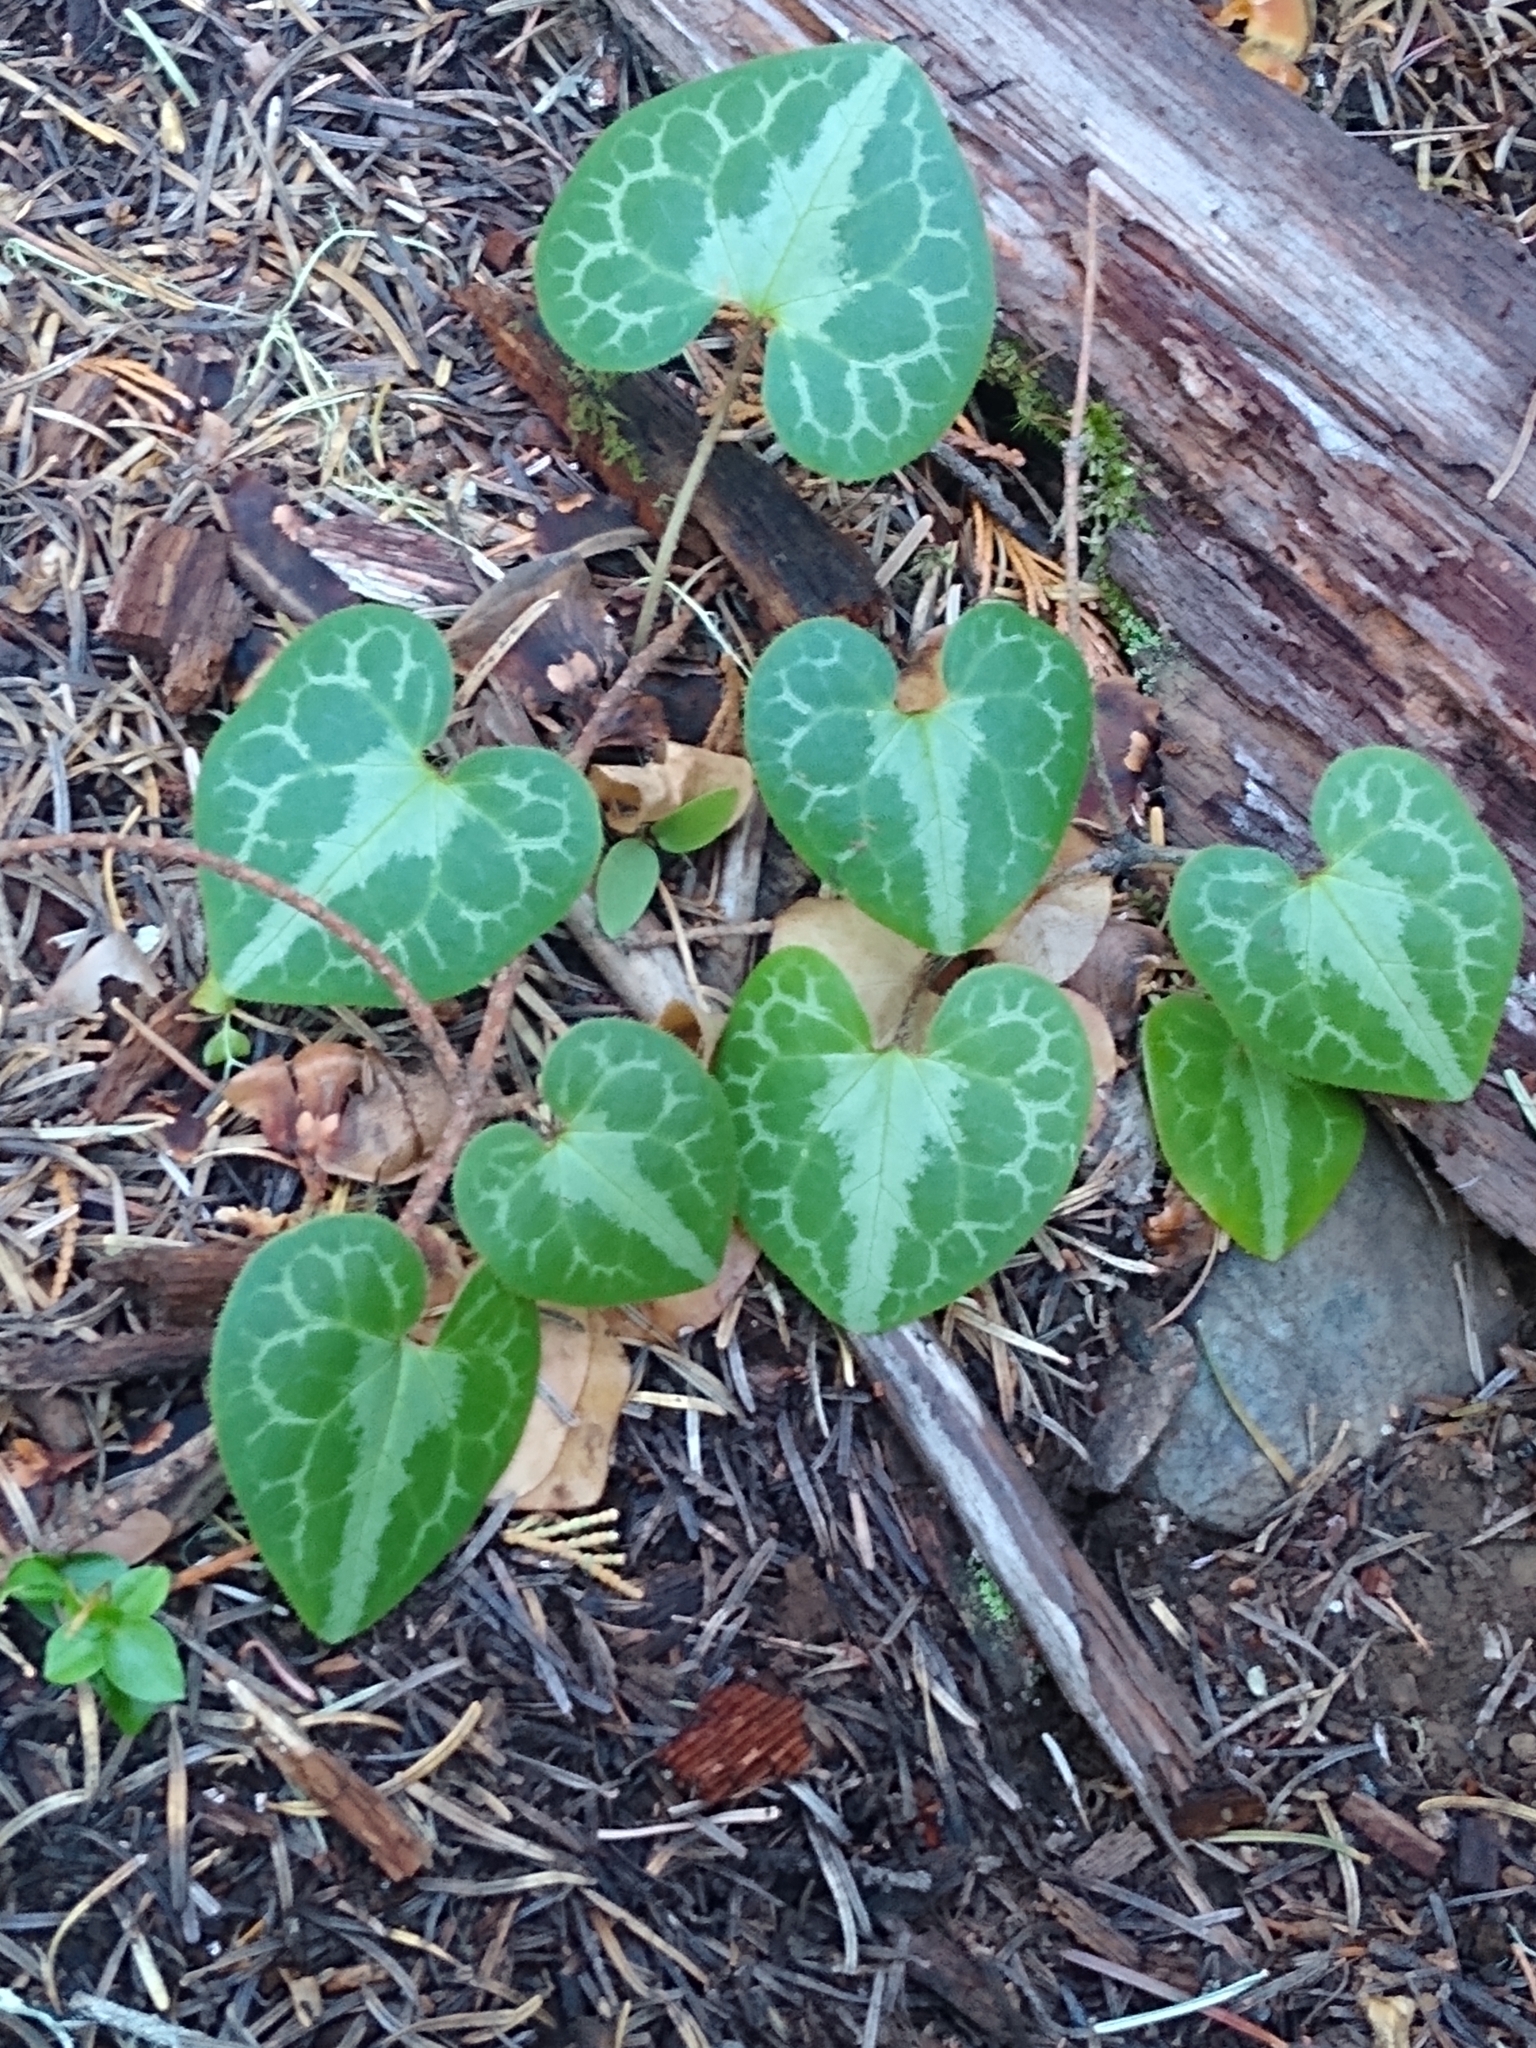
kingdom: Plantae
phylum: Tracheophyta
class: Magnoliopsida
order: Piperales
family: Aristolochiaceae
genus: Asarum
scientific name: Asarum marmoratum
